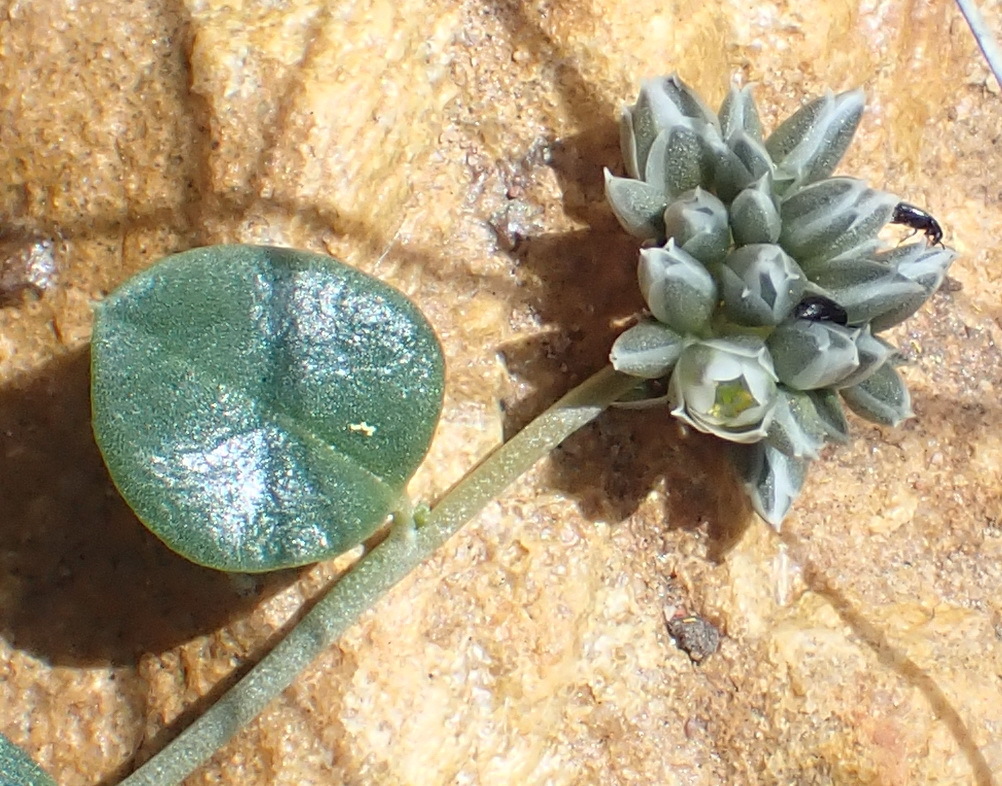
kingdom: Plantae
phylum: Tracheophyta
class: Magnoliopsida
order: Caryophyllales
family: Limeaceae
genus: Limeum
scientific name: Limeum aethiopicum
